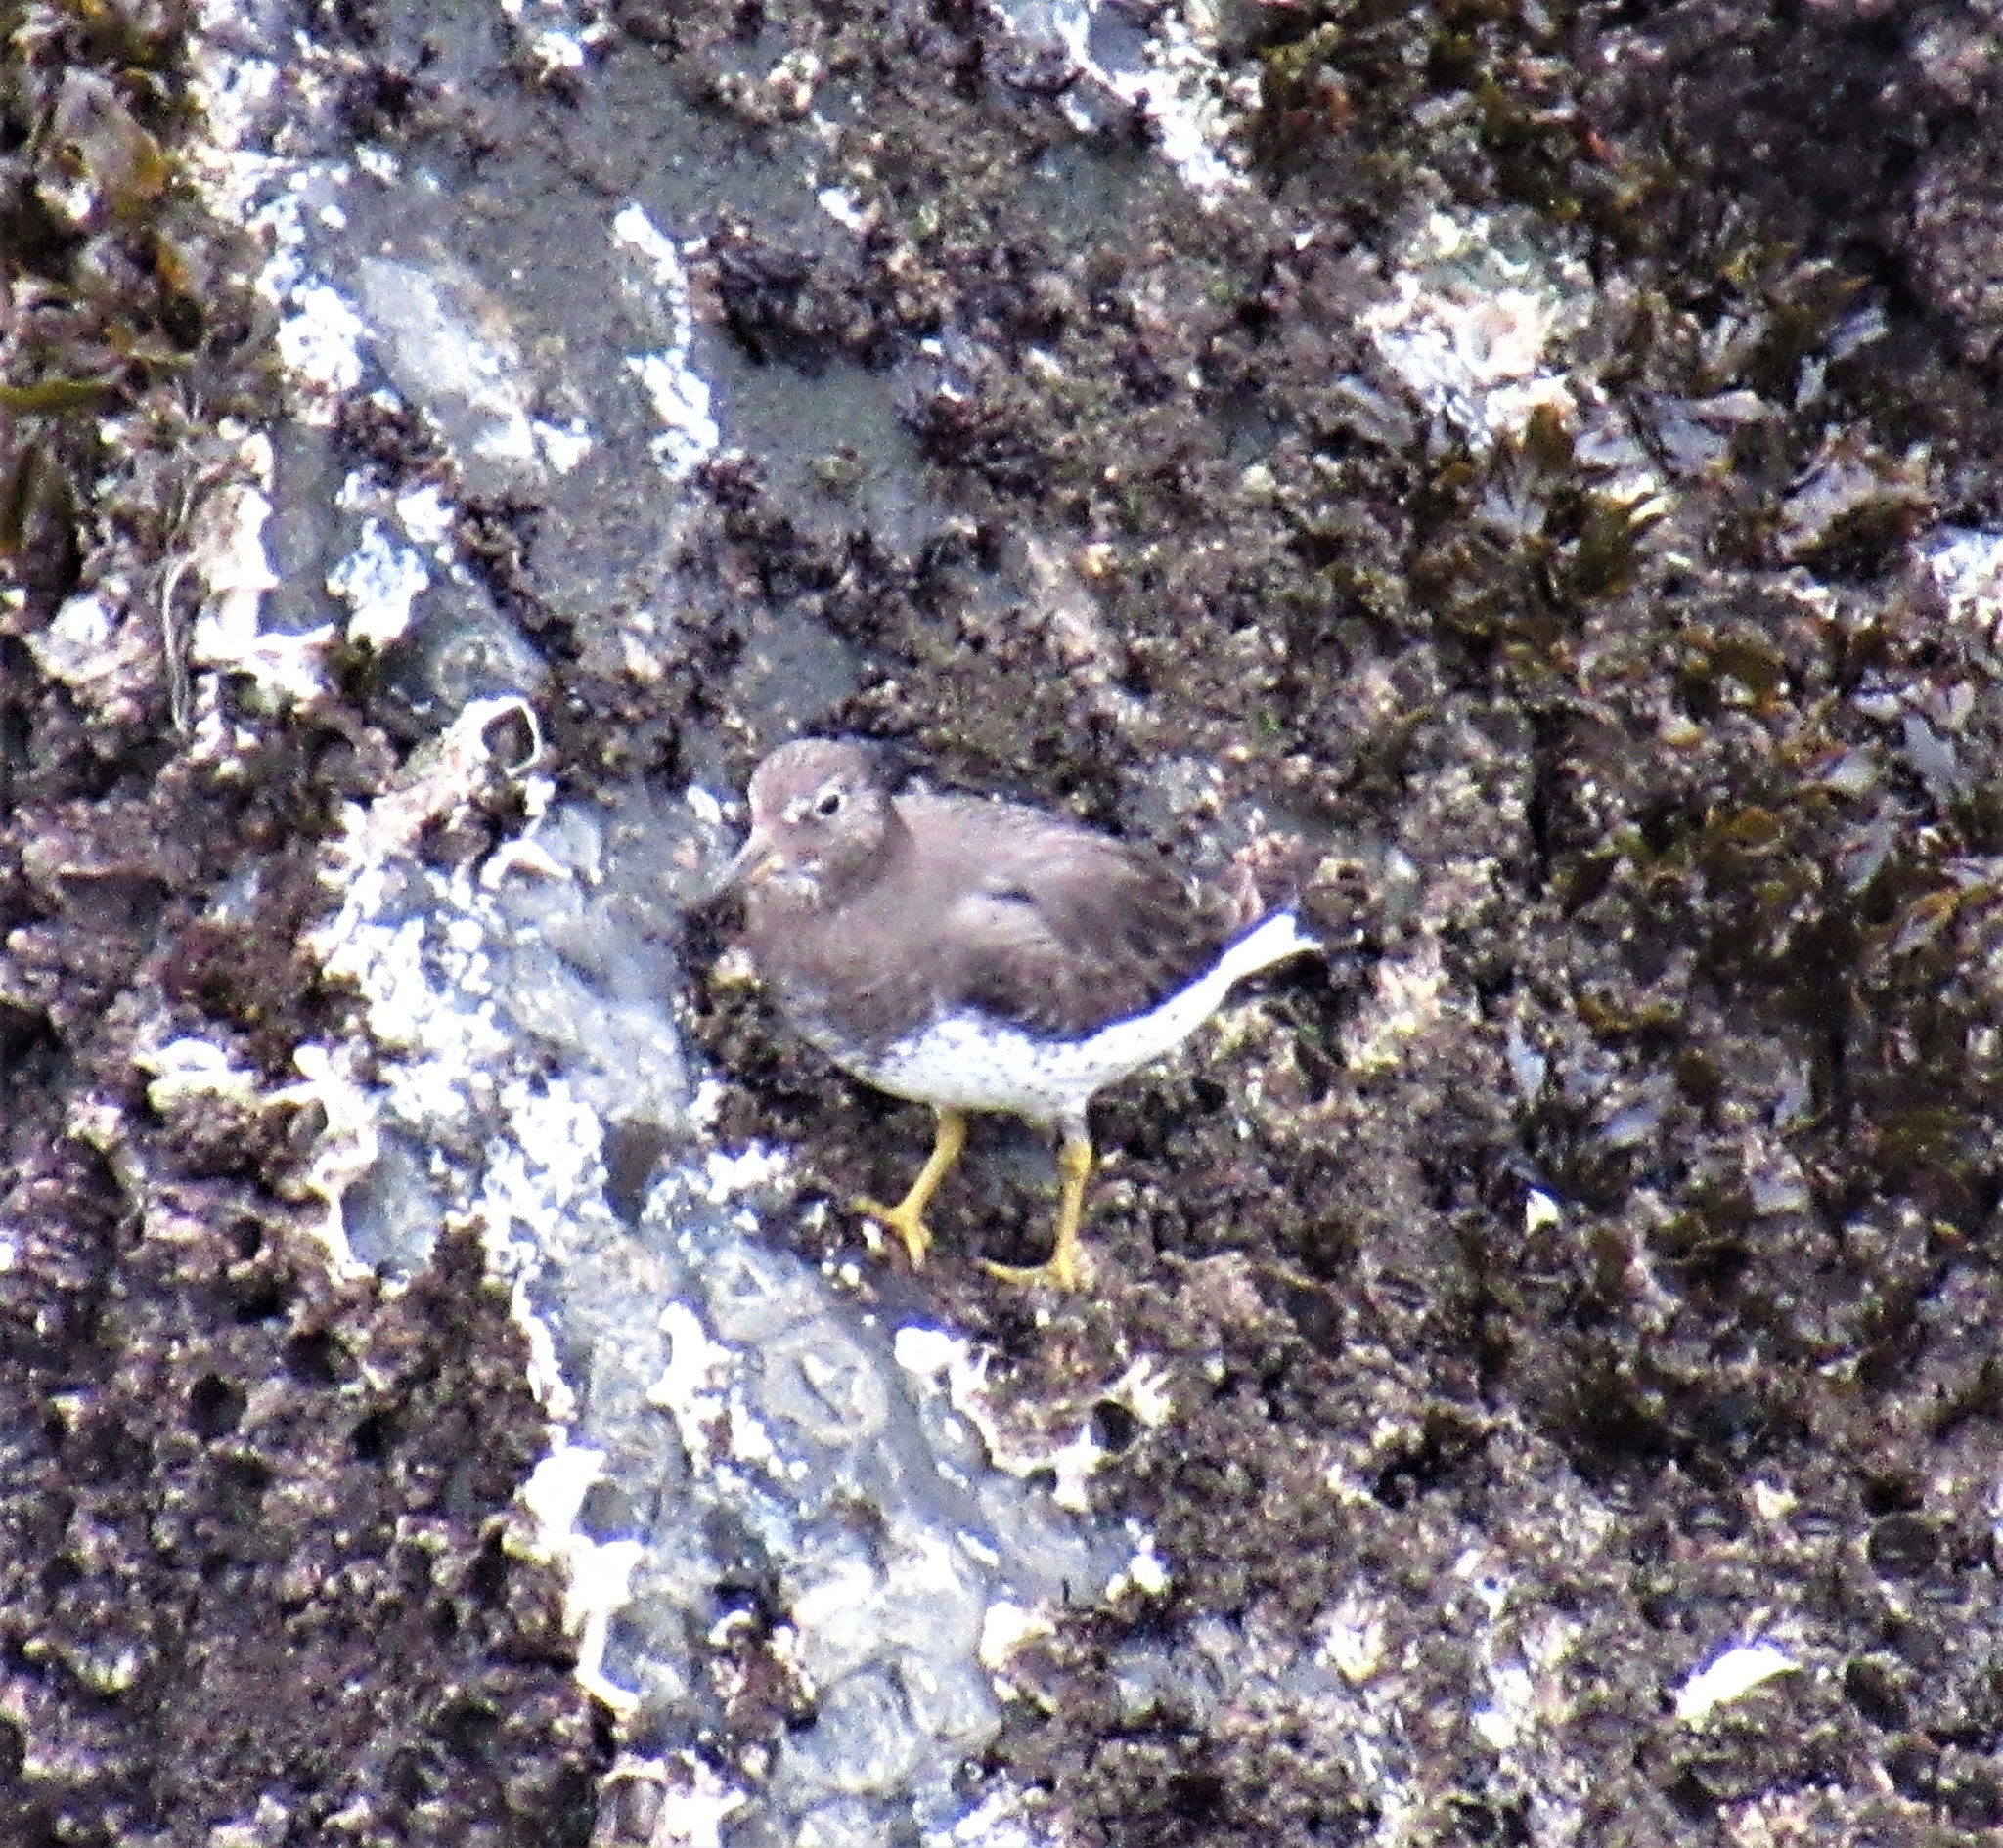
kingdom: Animalia
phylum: Chordata
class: Aves
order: Charadriiformes
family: Scolopacidae
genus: Calidris
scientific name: Calidris virgata
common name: Surfbird
